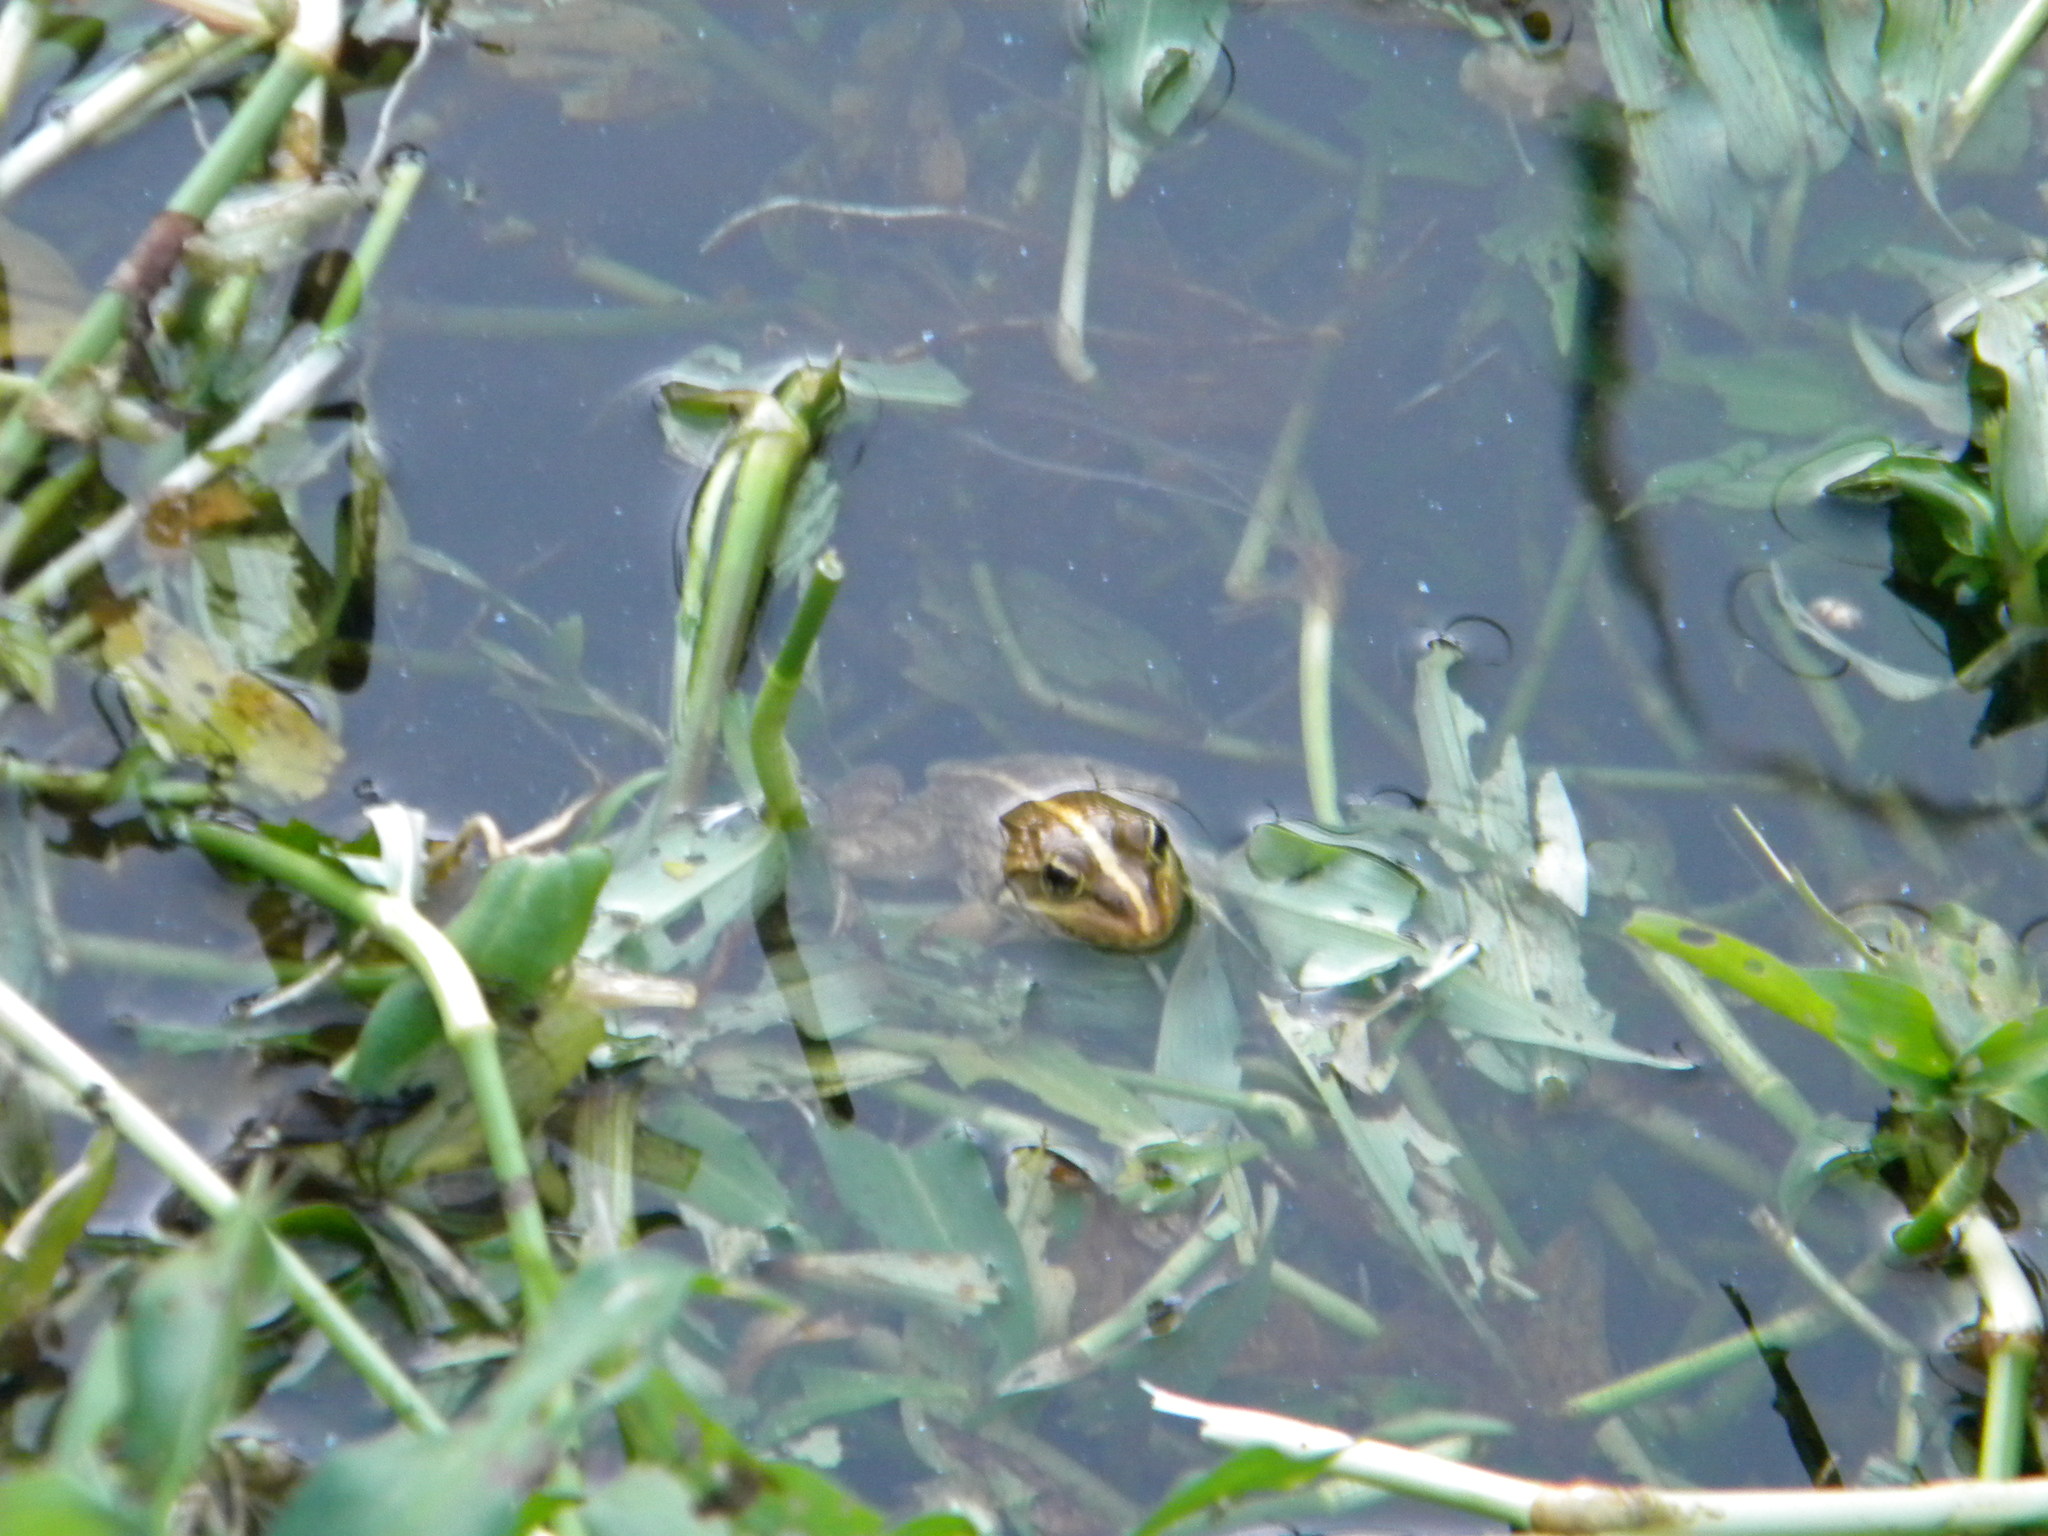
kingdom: Animalia
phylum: Chordata
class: Amphibia
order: Anura
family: Pyxicephalidae
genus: Amietia
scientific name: Amietia fuscigula
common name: Cape rana
